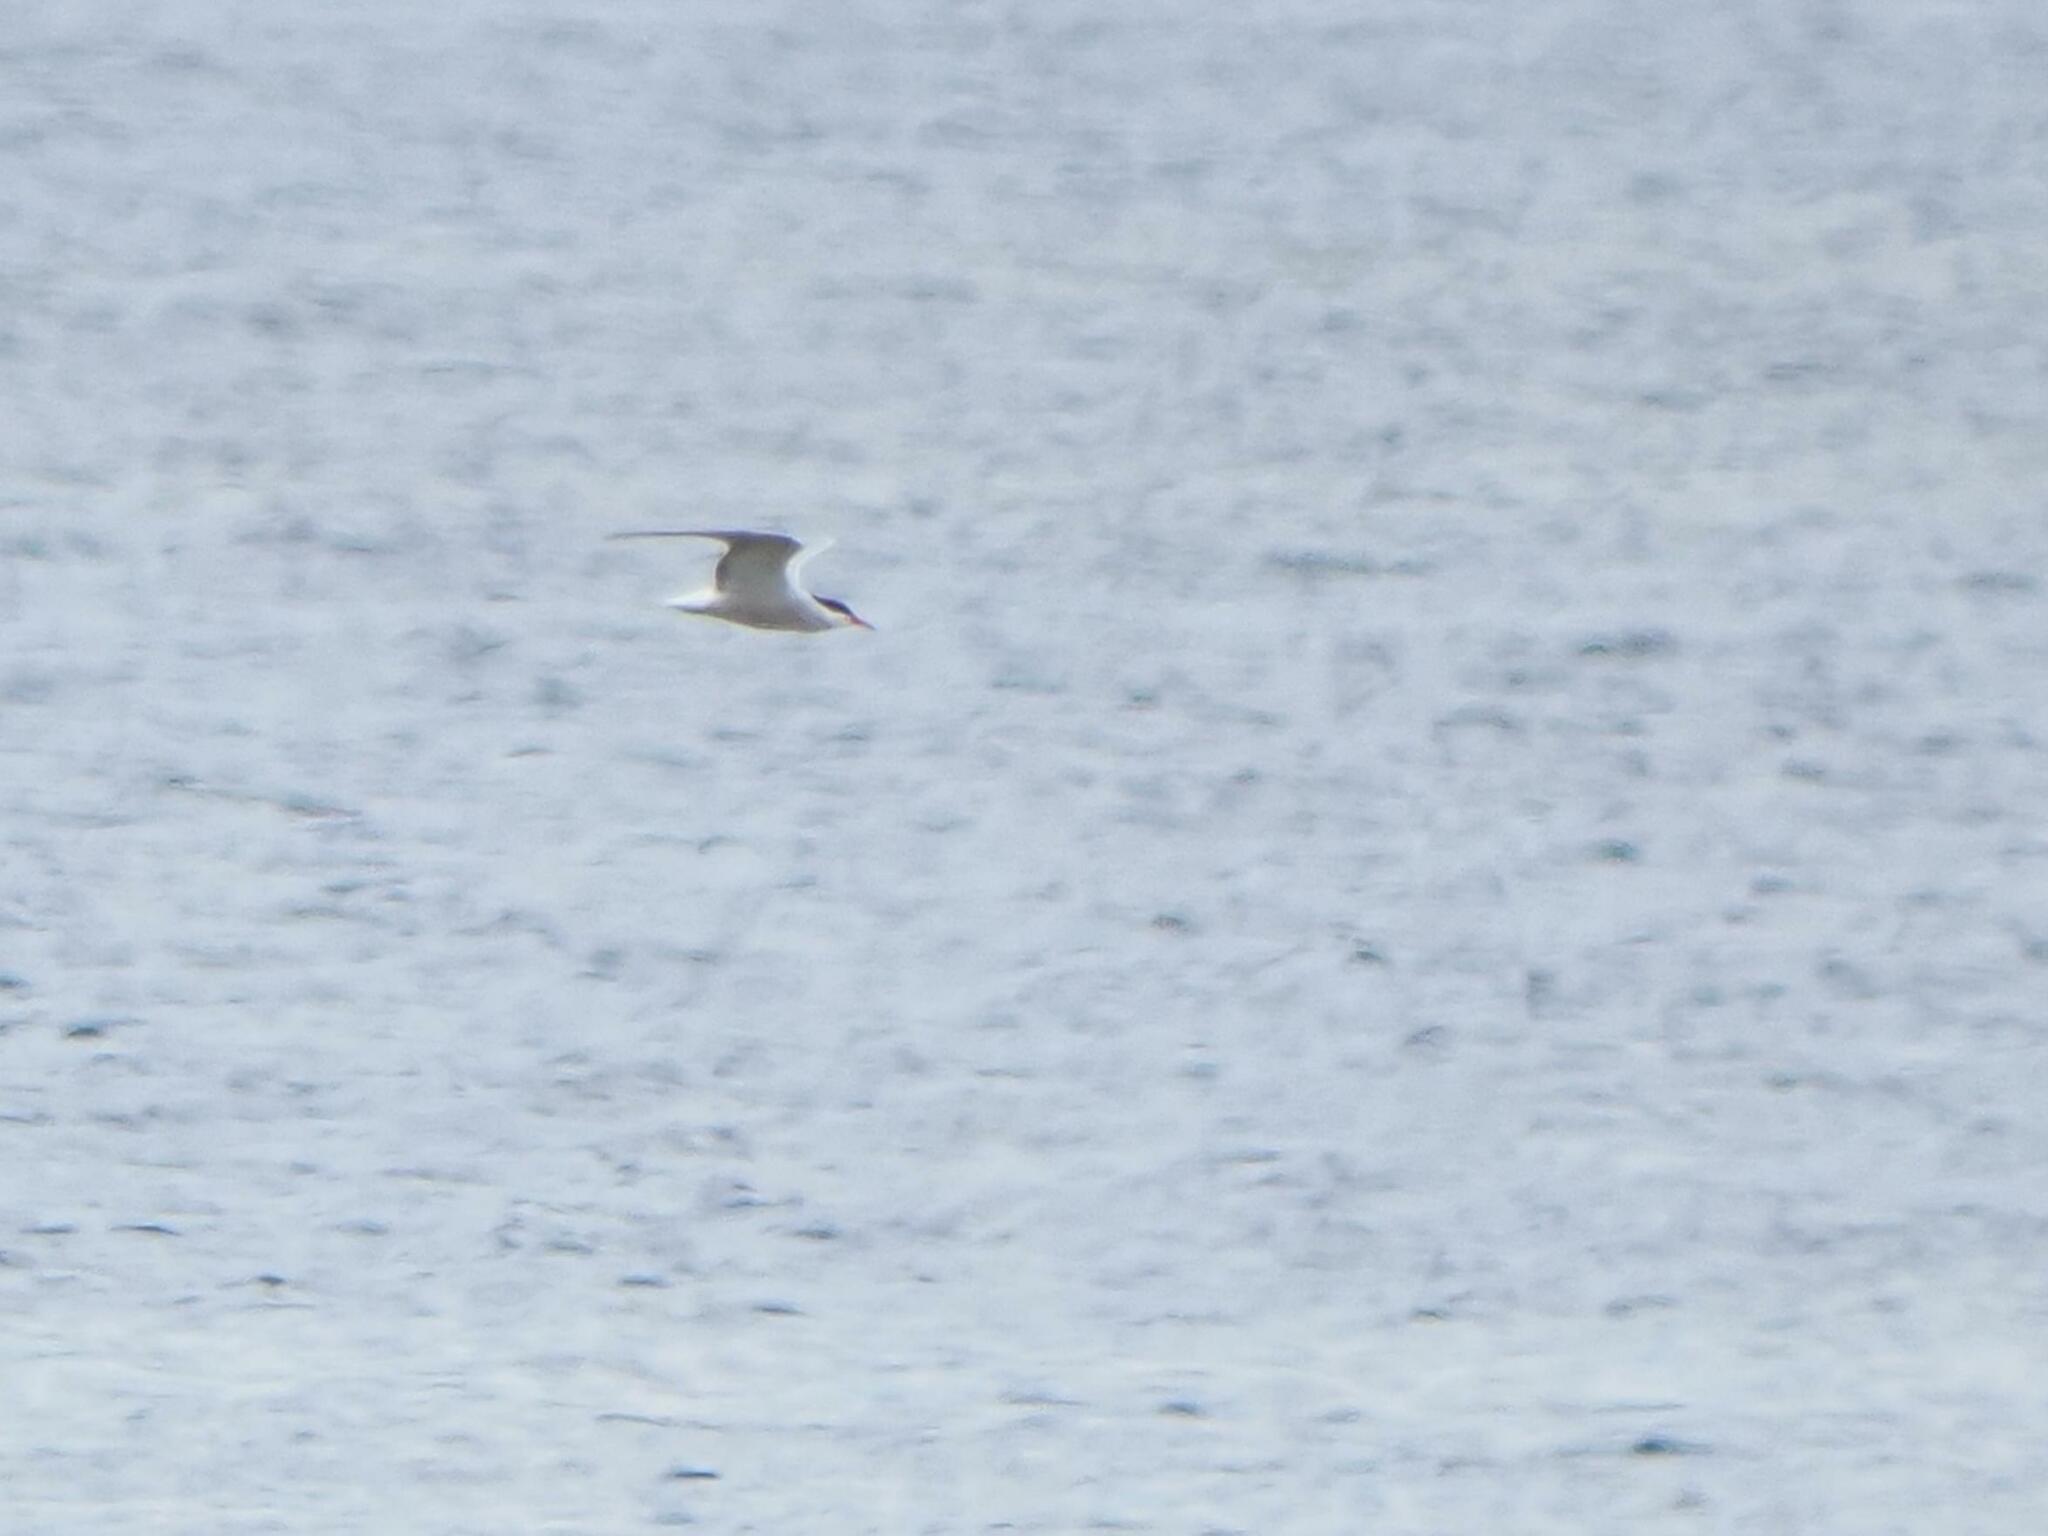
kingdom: Animalia
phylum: Chordata
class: Aves
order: Charadriiformes
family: Laridae
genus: Sterna
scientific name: Sterna hirundo
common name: Common tern
